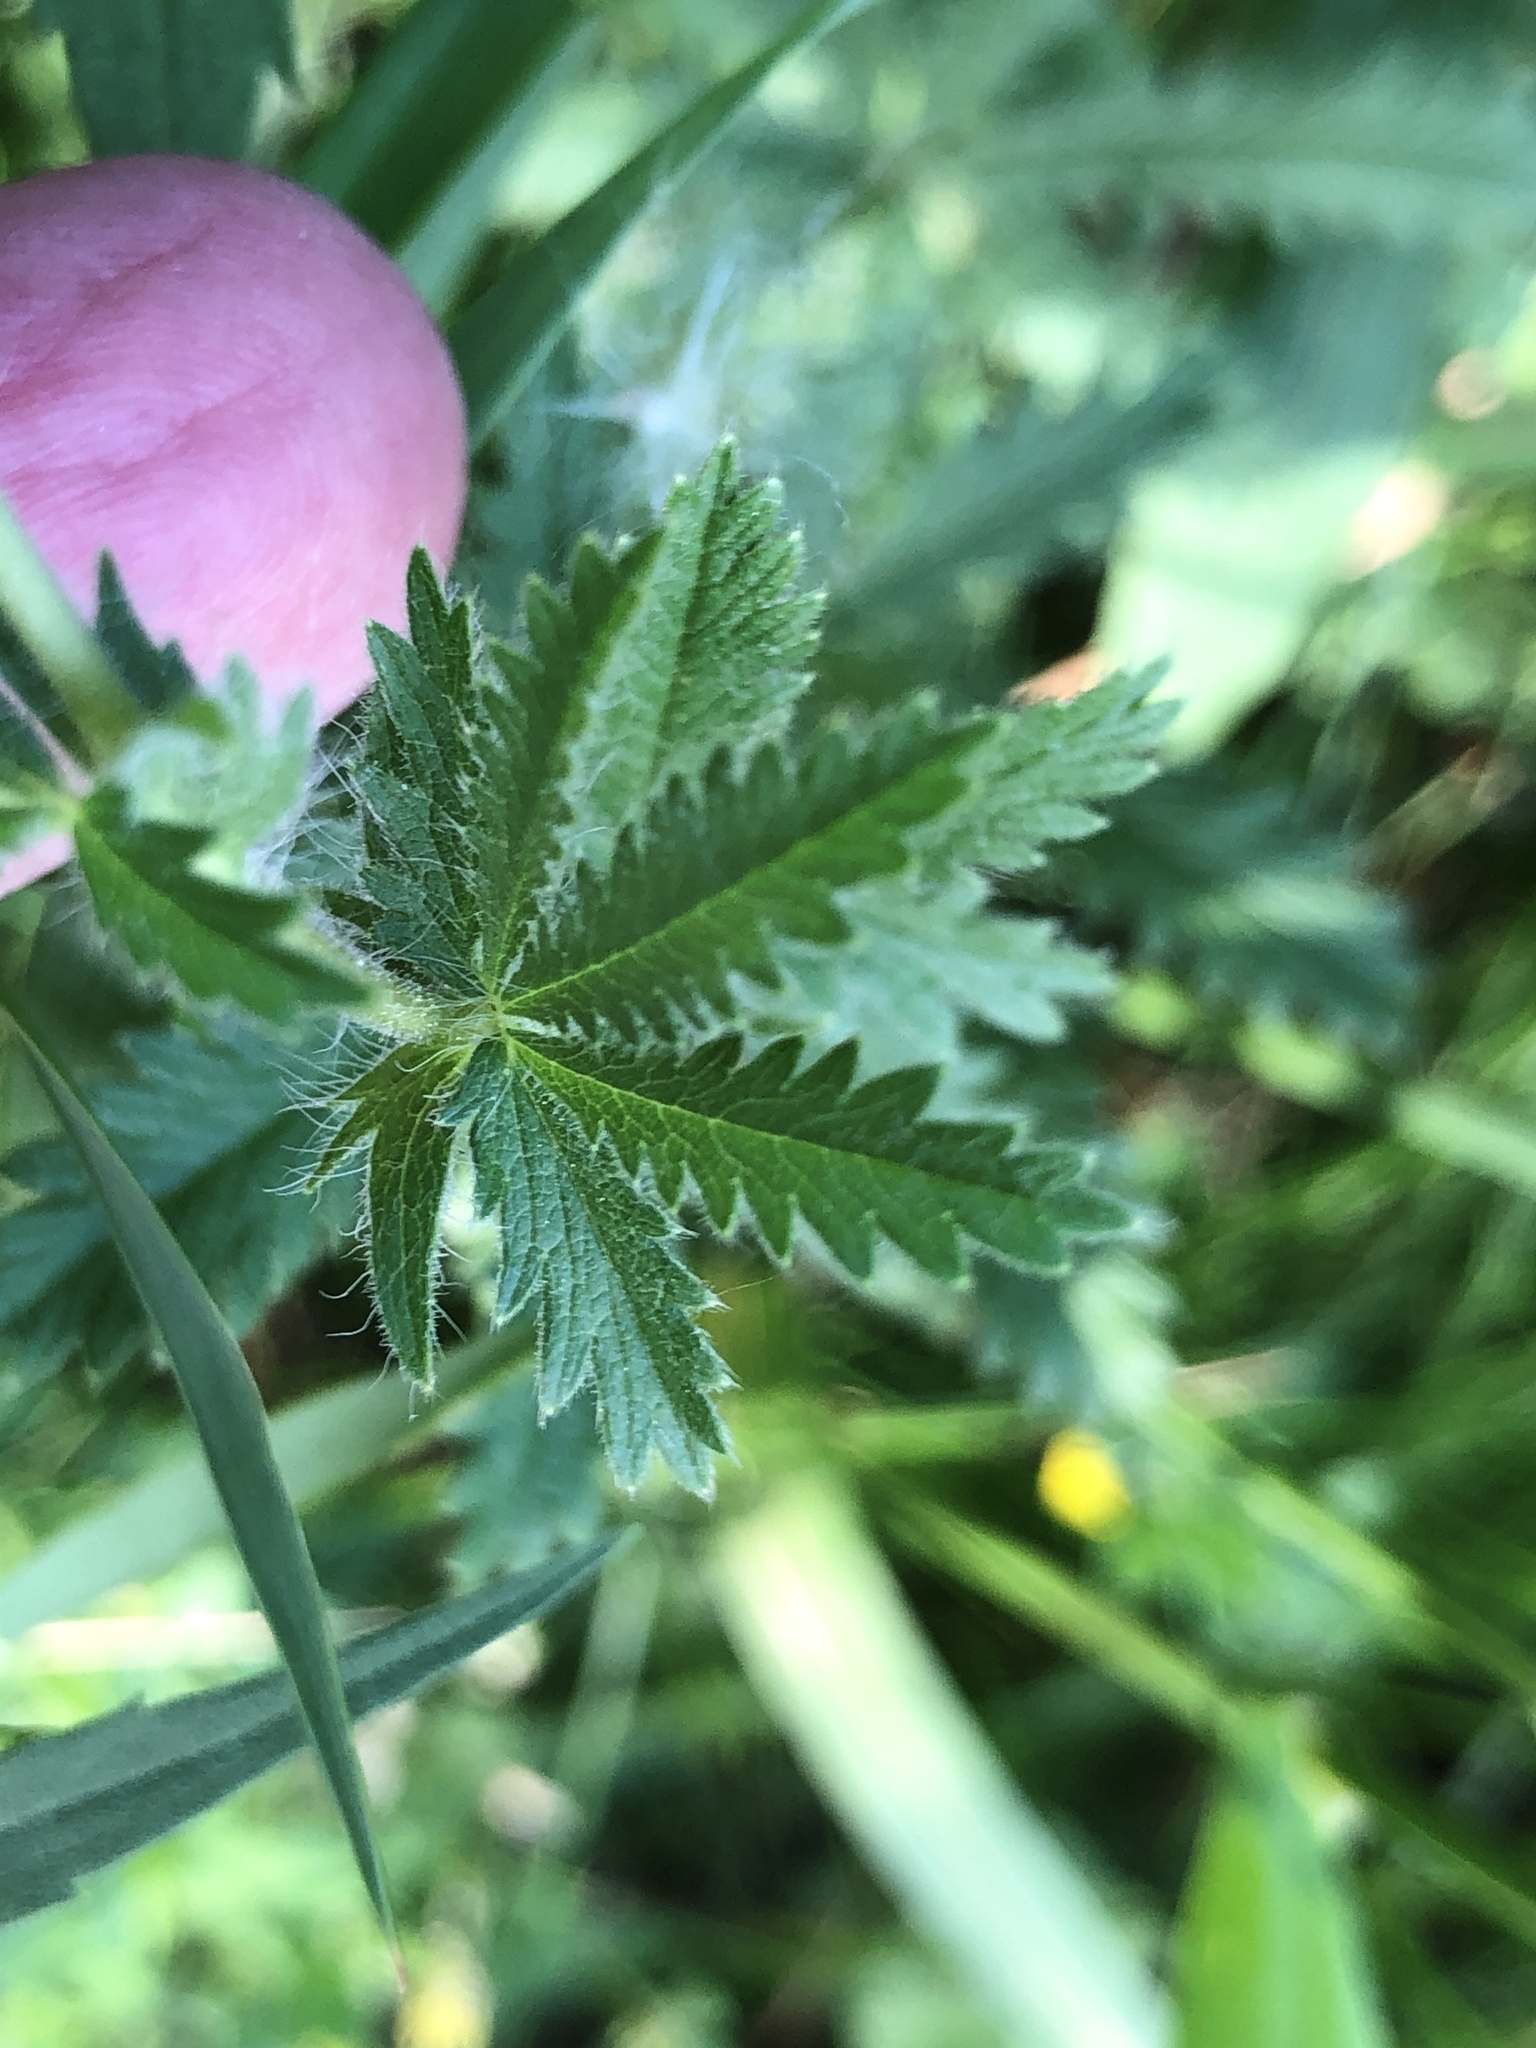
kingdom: Plantae
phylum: Tracheophyta
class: Magnoliopsida
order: Rosales
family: Rosaceae
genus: Potentilla
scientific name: Potentilla recta
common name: Sulphur cinquefoil
